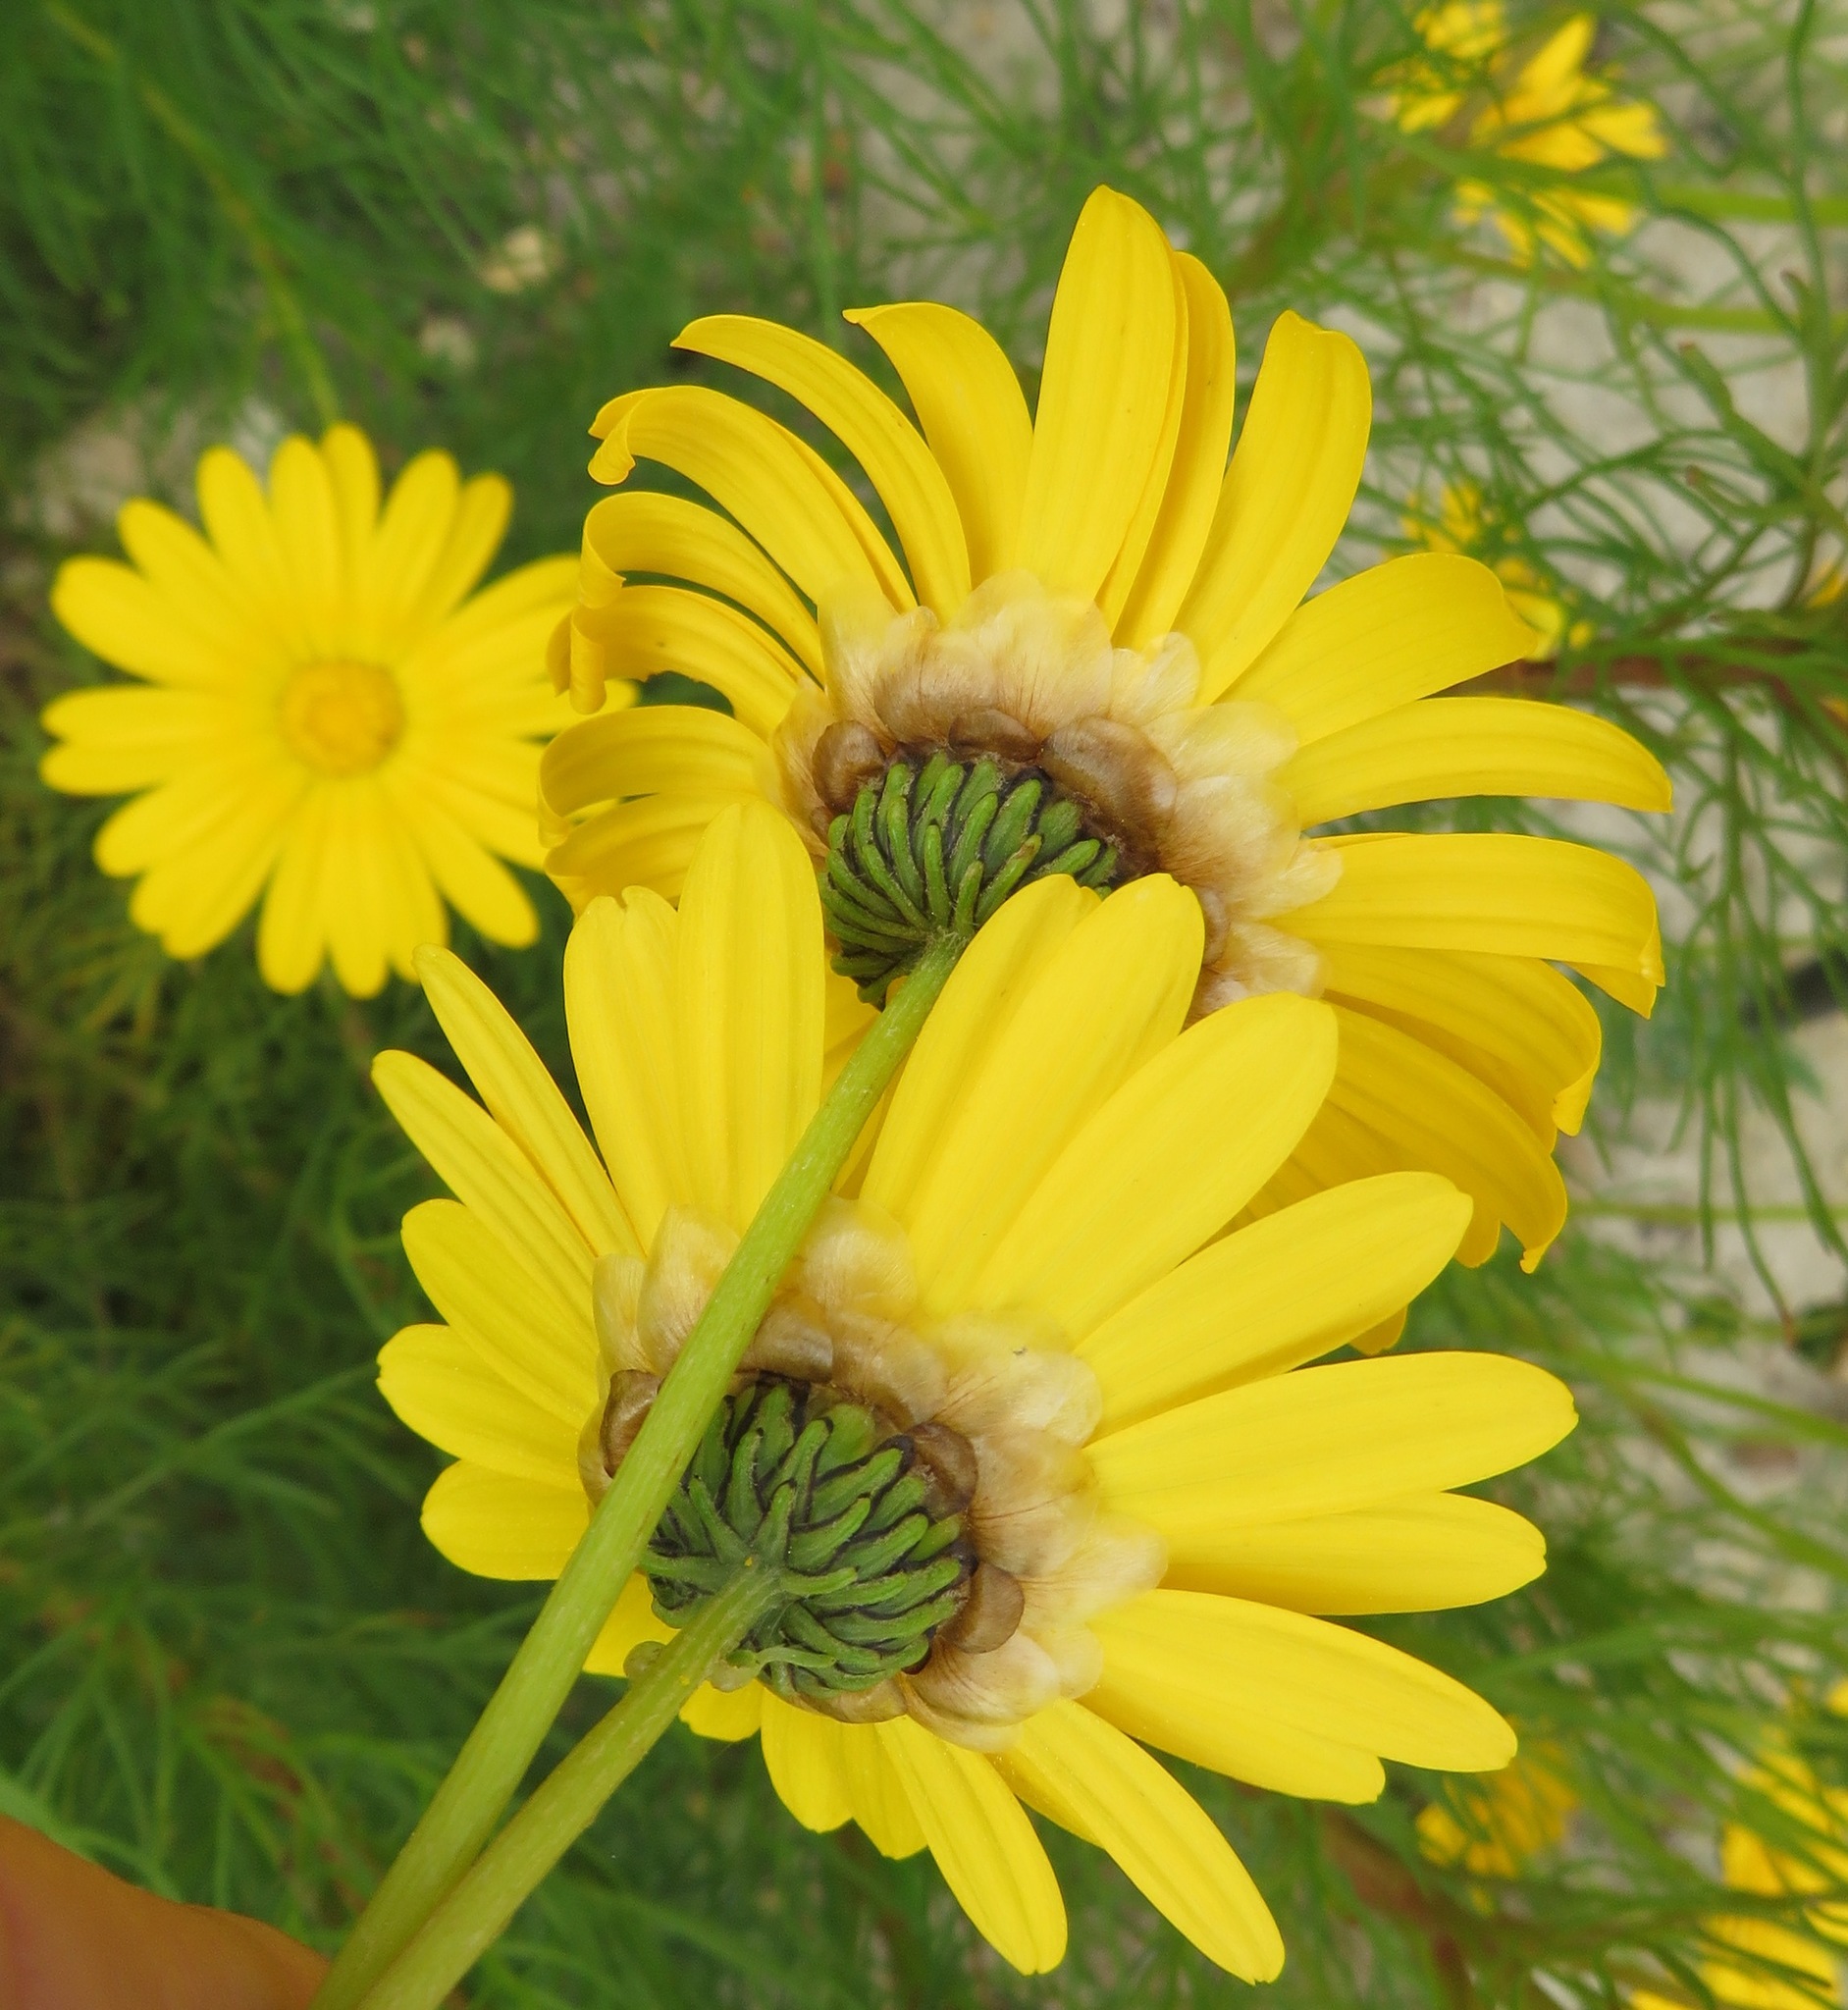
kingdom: Plantae
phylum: Tracheophyta
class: Magnoliopsida
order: Asterales
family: Asteraceae
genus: Ursinia
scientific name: Ursinia paleacea
